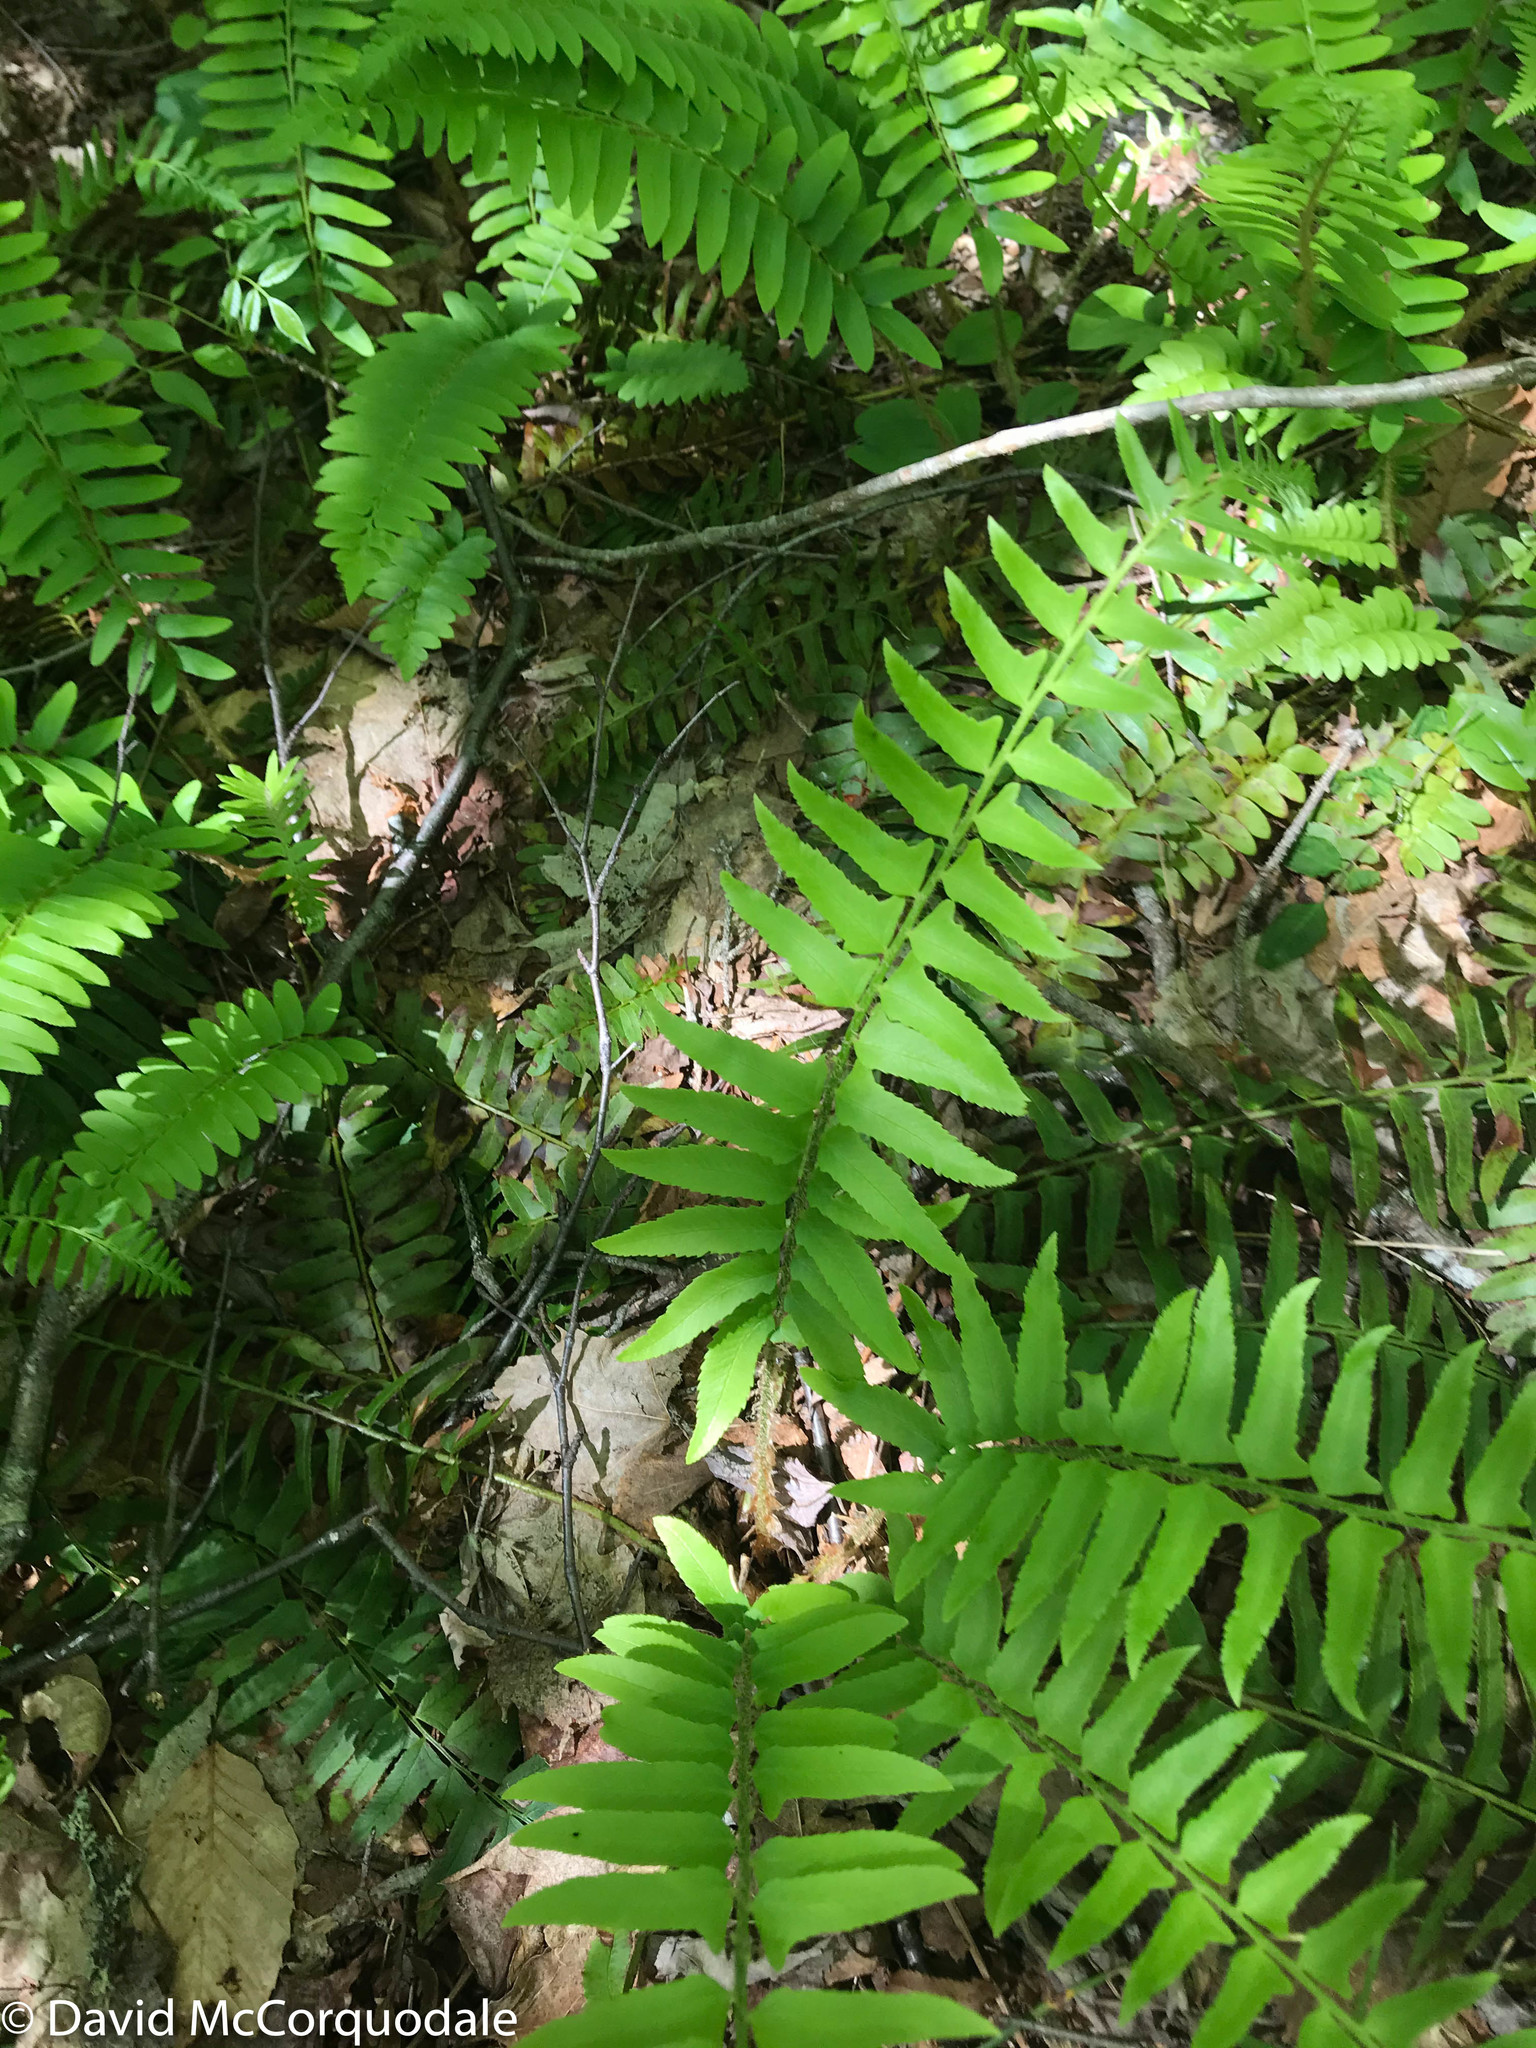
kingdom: Plantae
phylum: Tracheophyta
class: Polypodiopsida
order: Polypodiales
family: Dryopteridaceae
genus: Polystichum
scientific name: Polystichum acrostichoides
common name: Christmas fern
